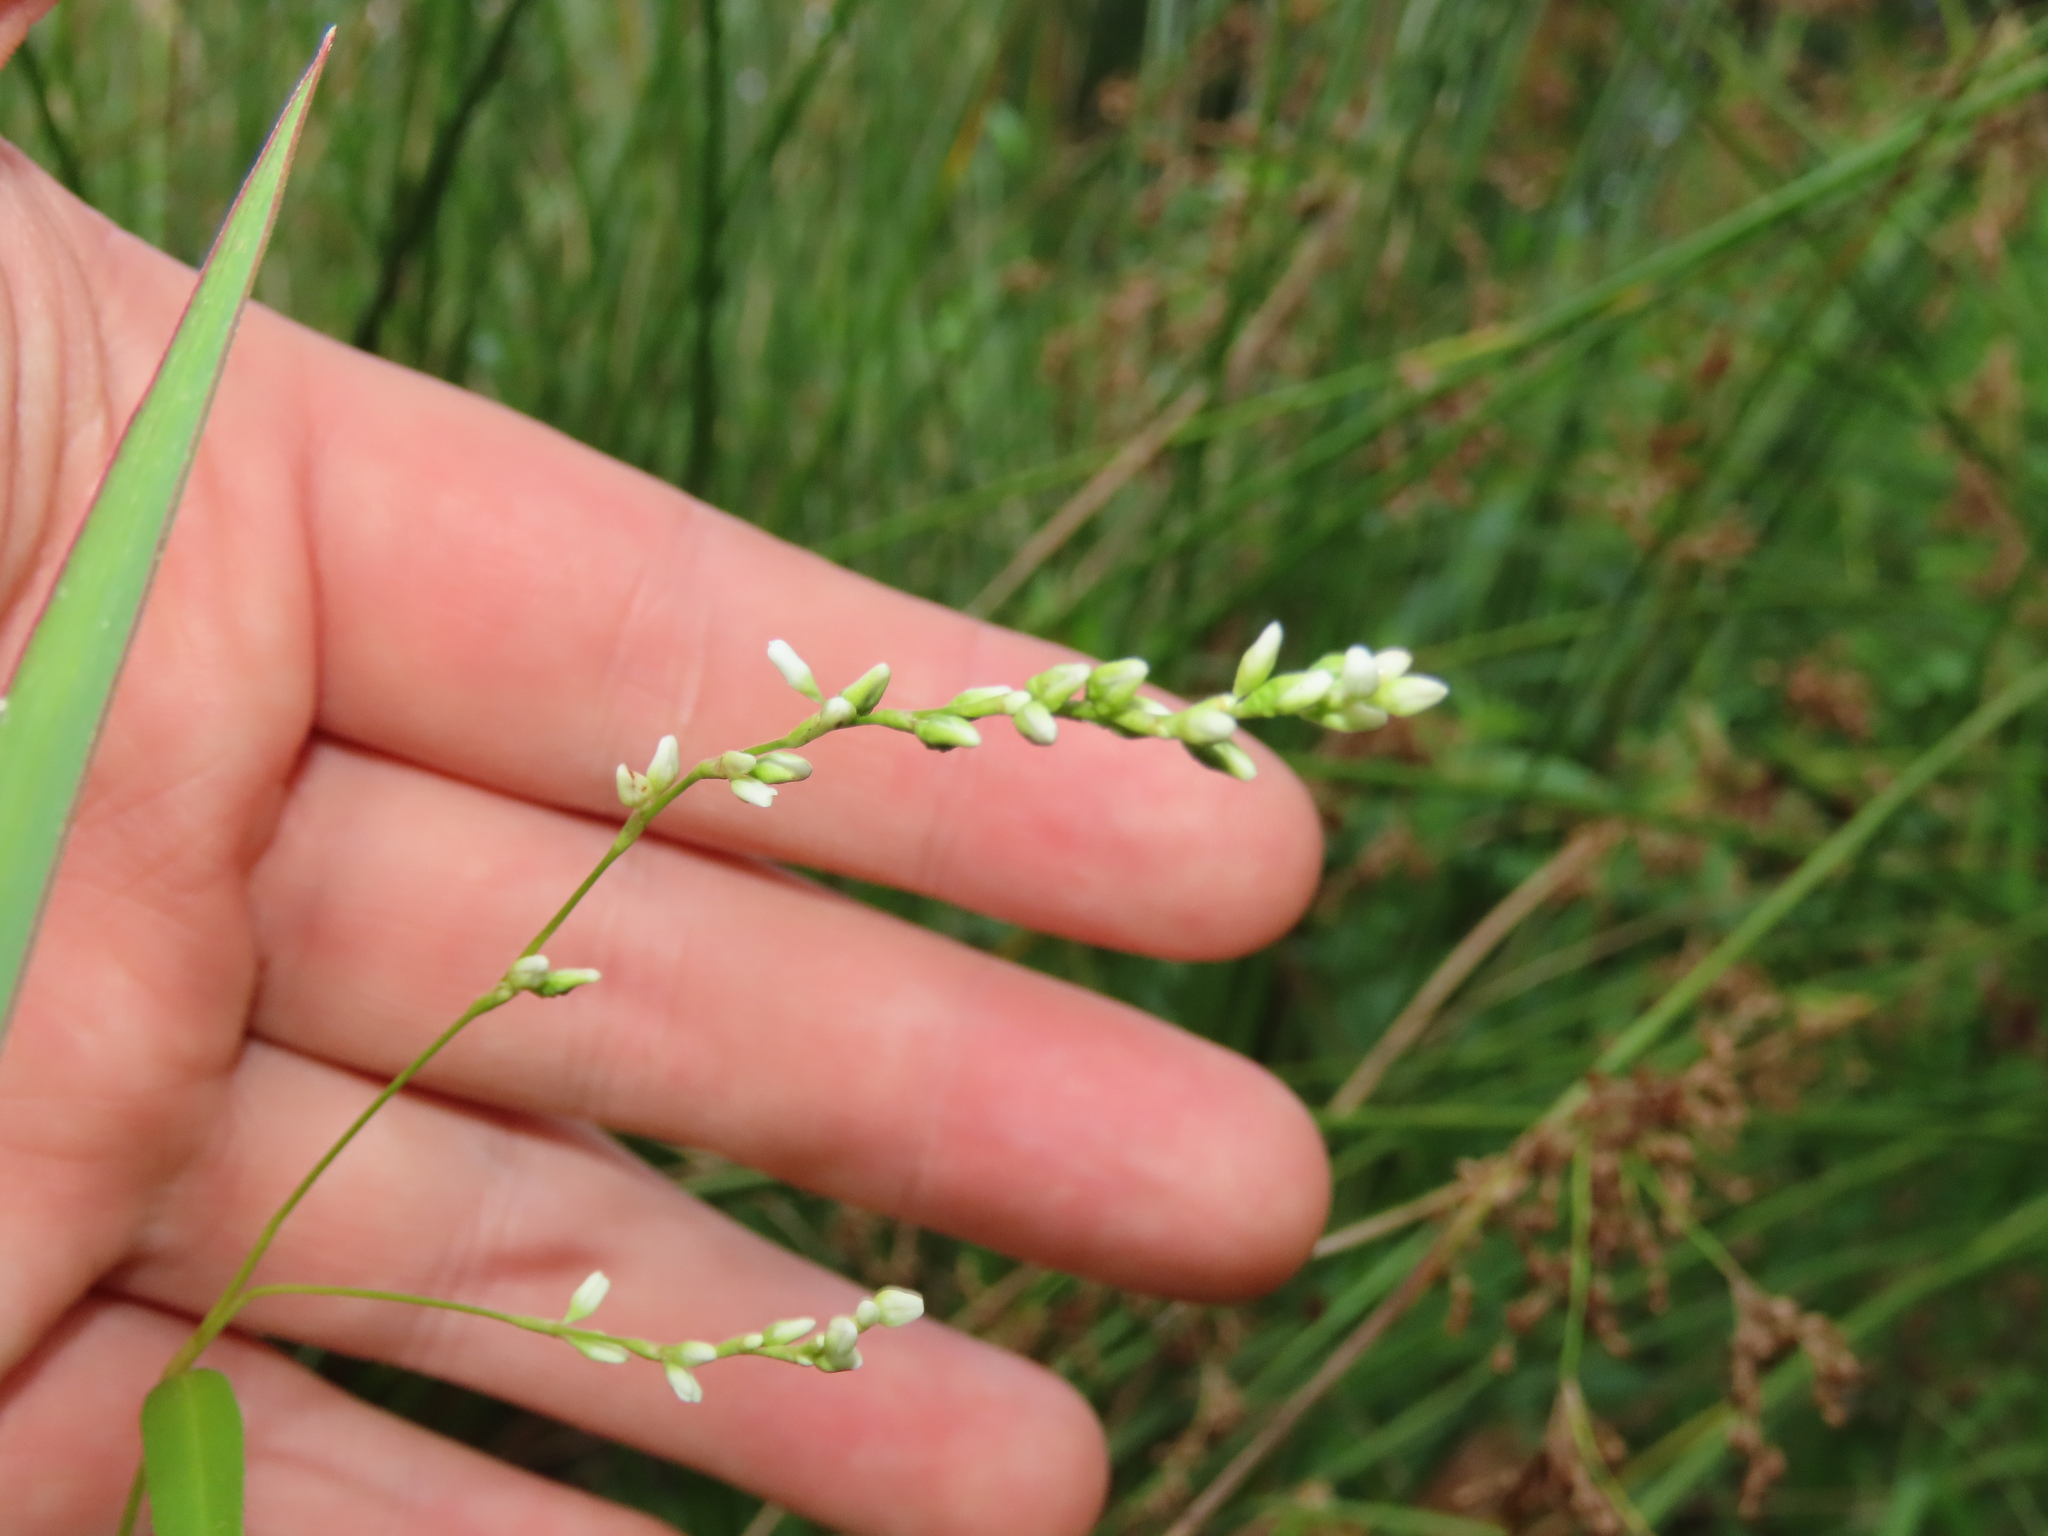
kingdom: Plantae
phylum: Tracheophyta
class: Magnoliopsida
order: Caryophyllales
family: Polygonaceae
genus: Persicaria
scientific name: Persicaria punctata
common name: Dotted smartweed
